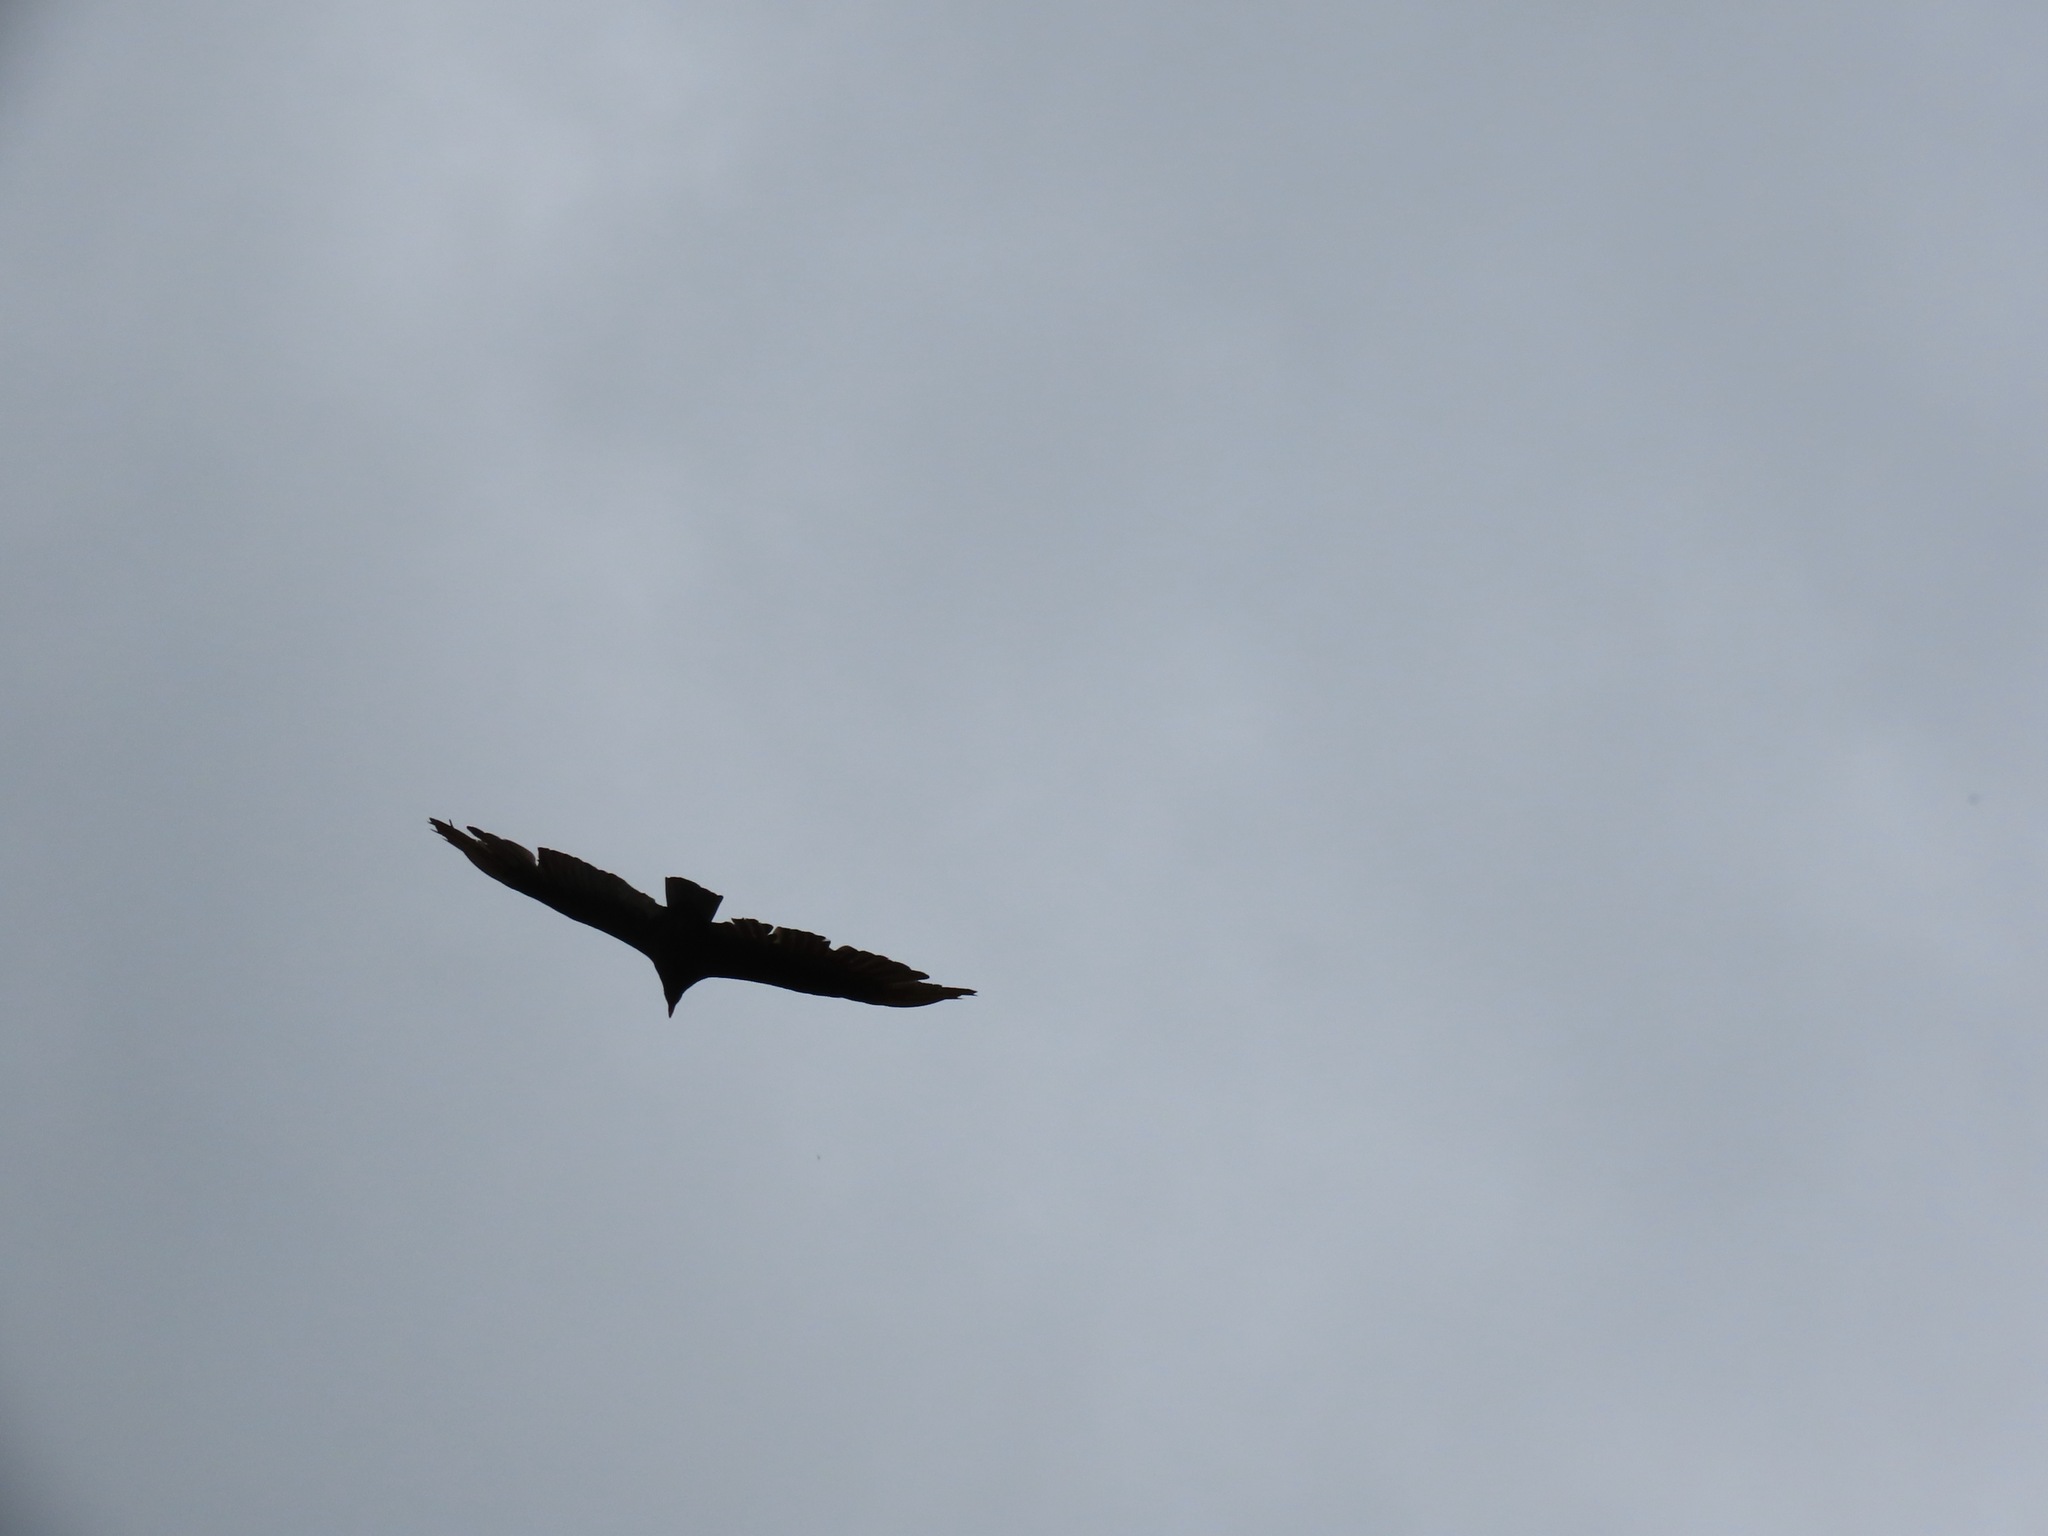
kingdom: Animalia
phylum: Chordata
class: Aves
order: Accipitriformes
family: Cathartidae
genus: Cathartes
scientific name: Cathartes aura
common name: Turkey vulture
